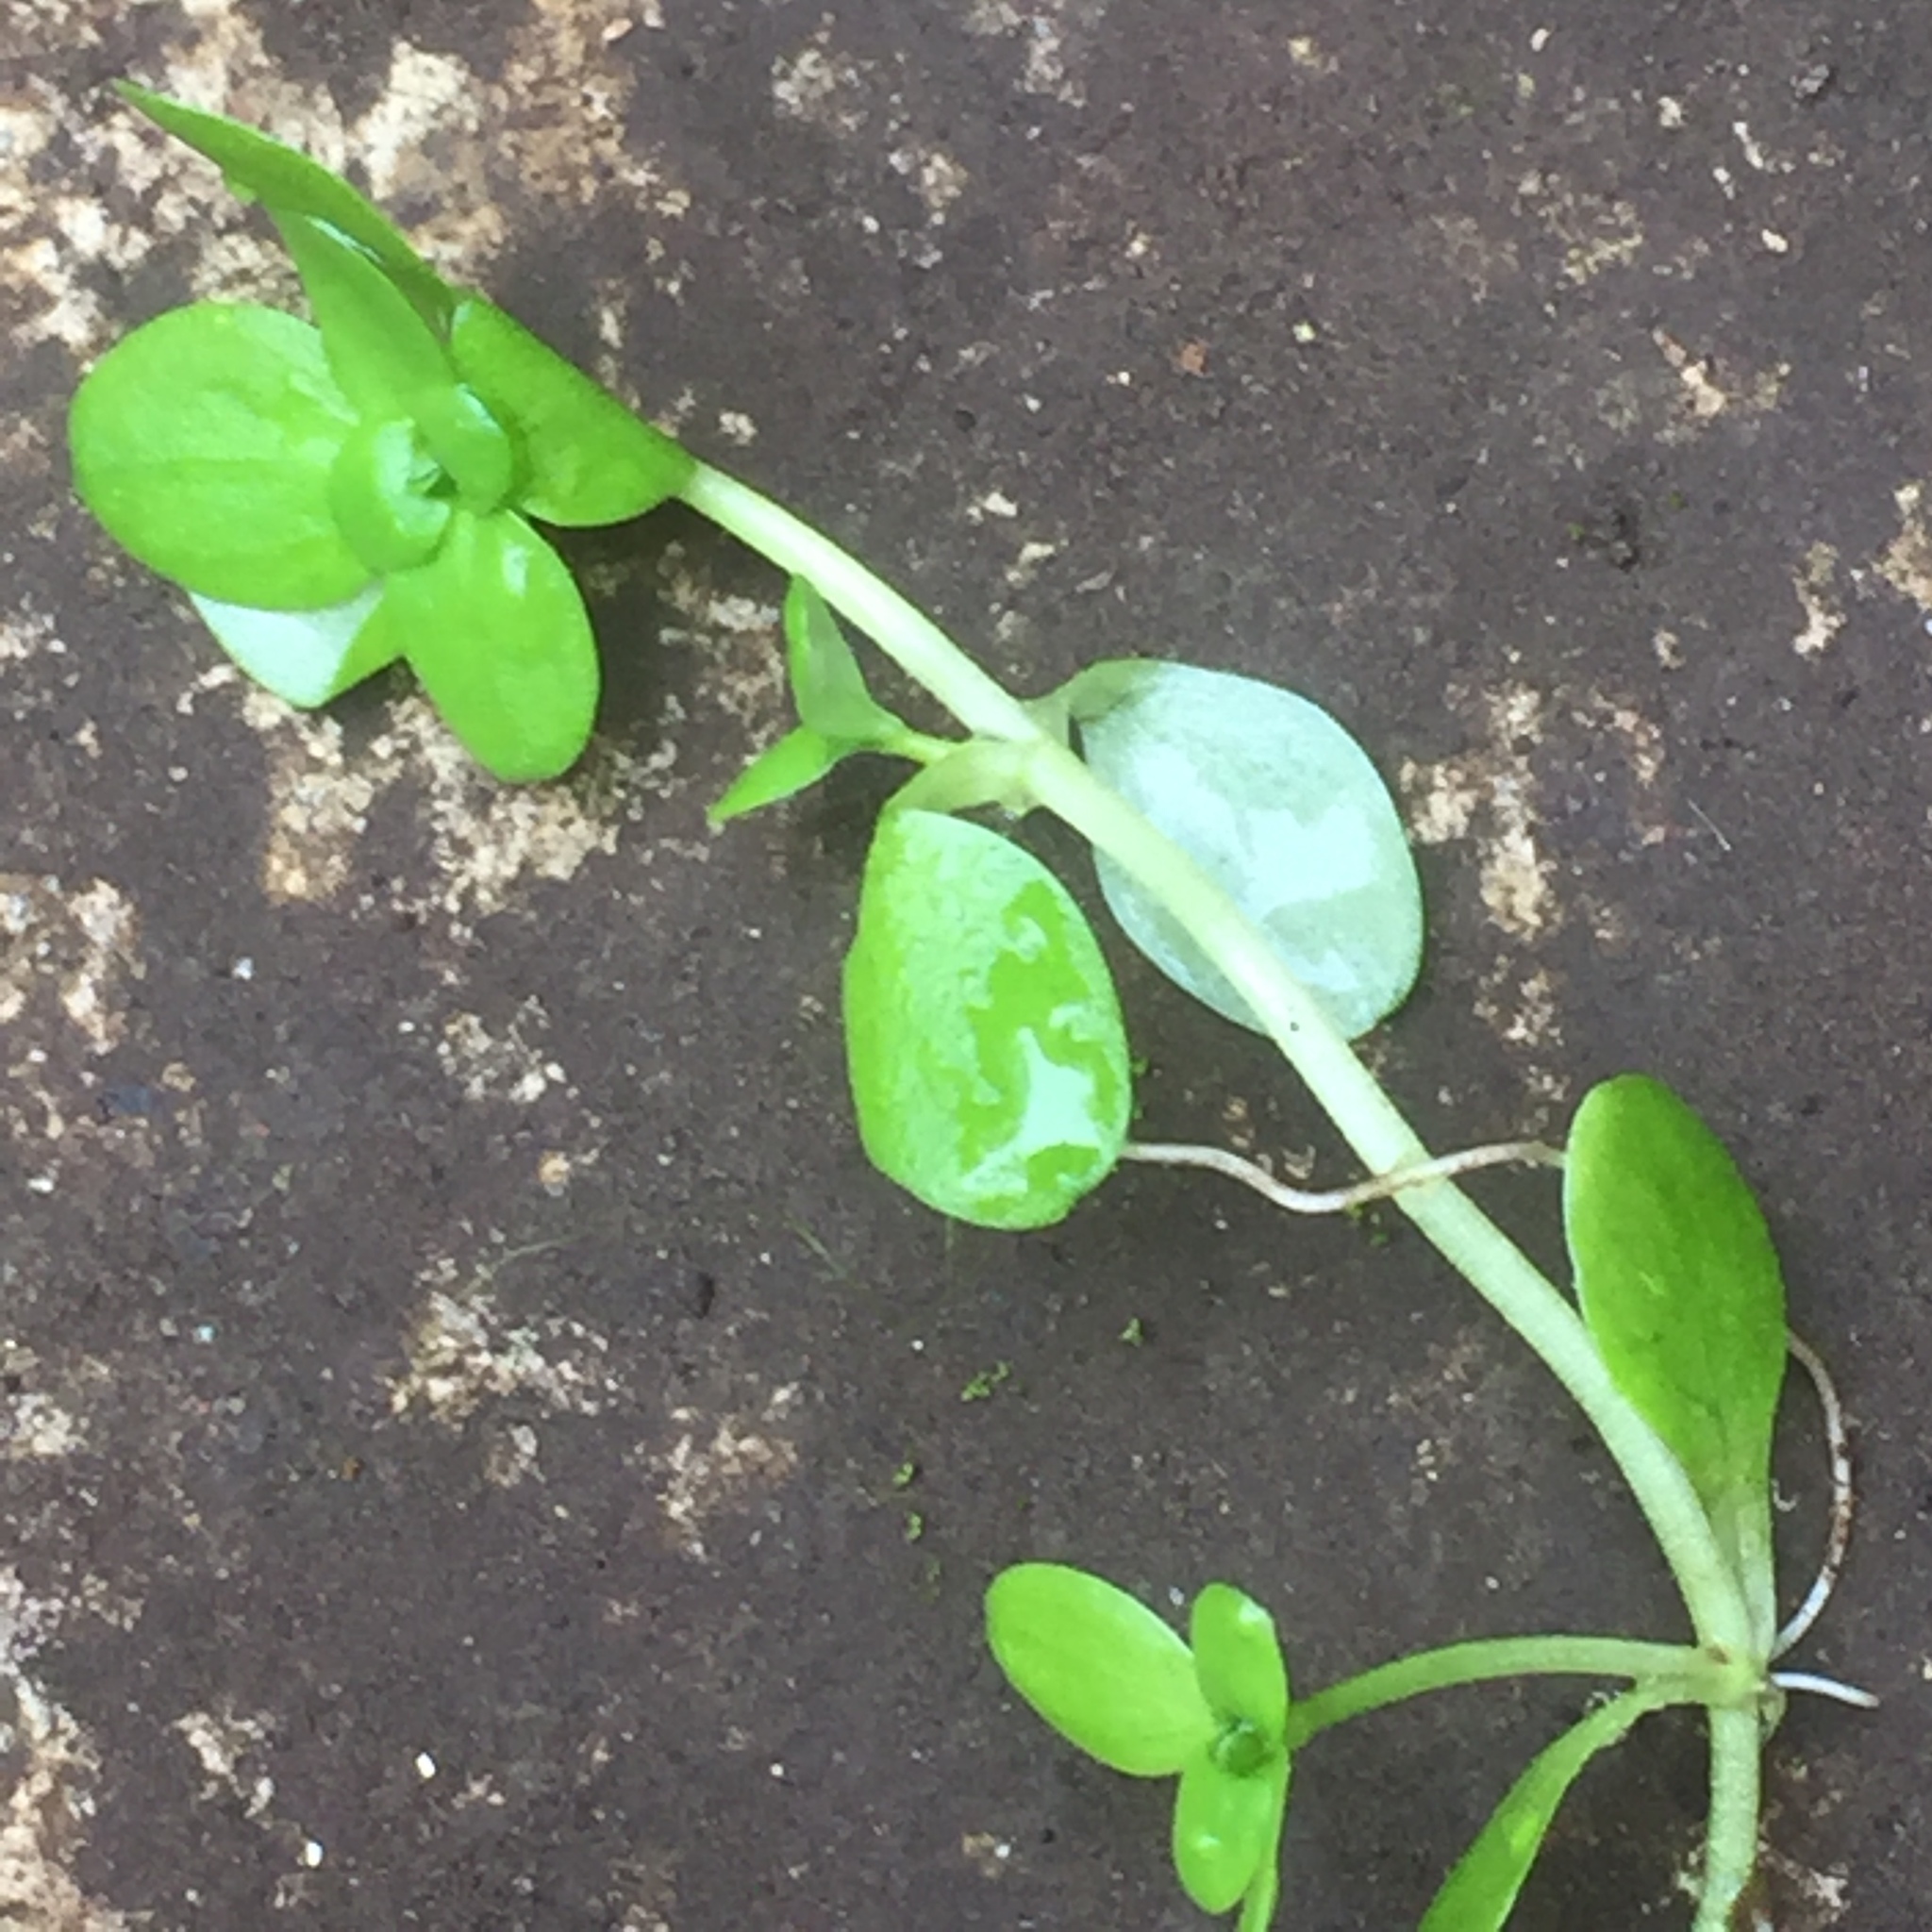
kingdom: Plantae
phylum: Tracheophyta
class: Magnoliopsida
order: Lamiales
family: Plantaginaceae
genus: Callitriche
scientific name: Callitriche stagnalis
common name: Common water-starwort
